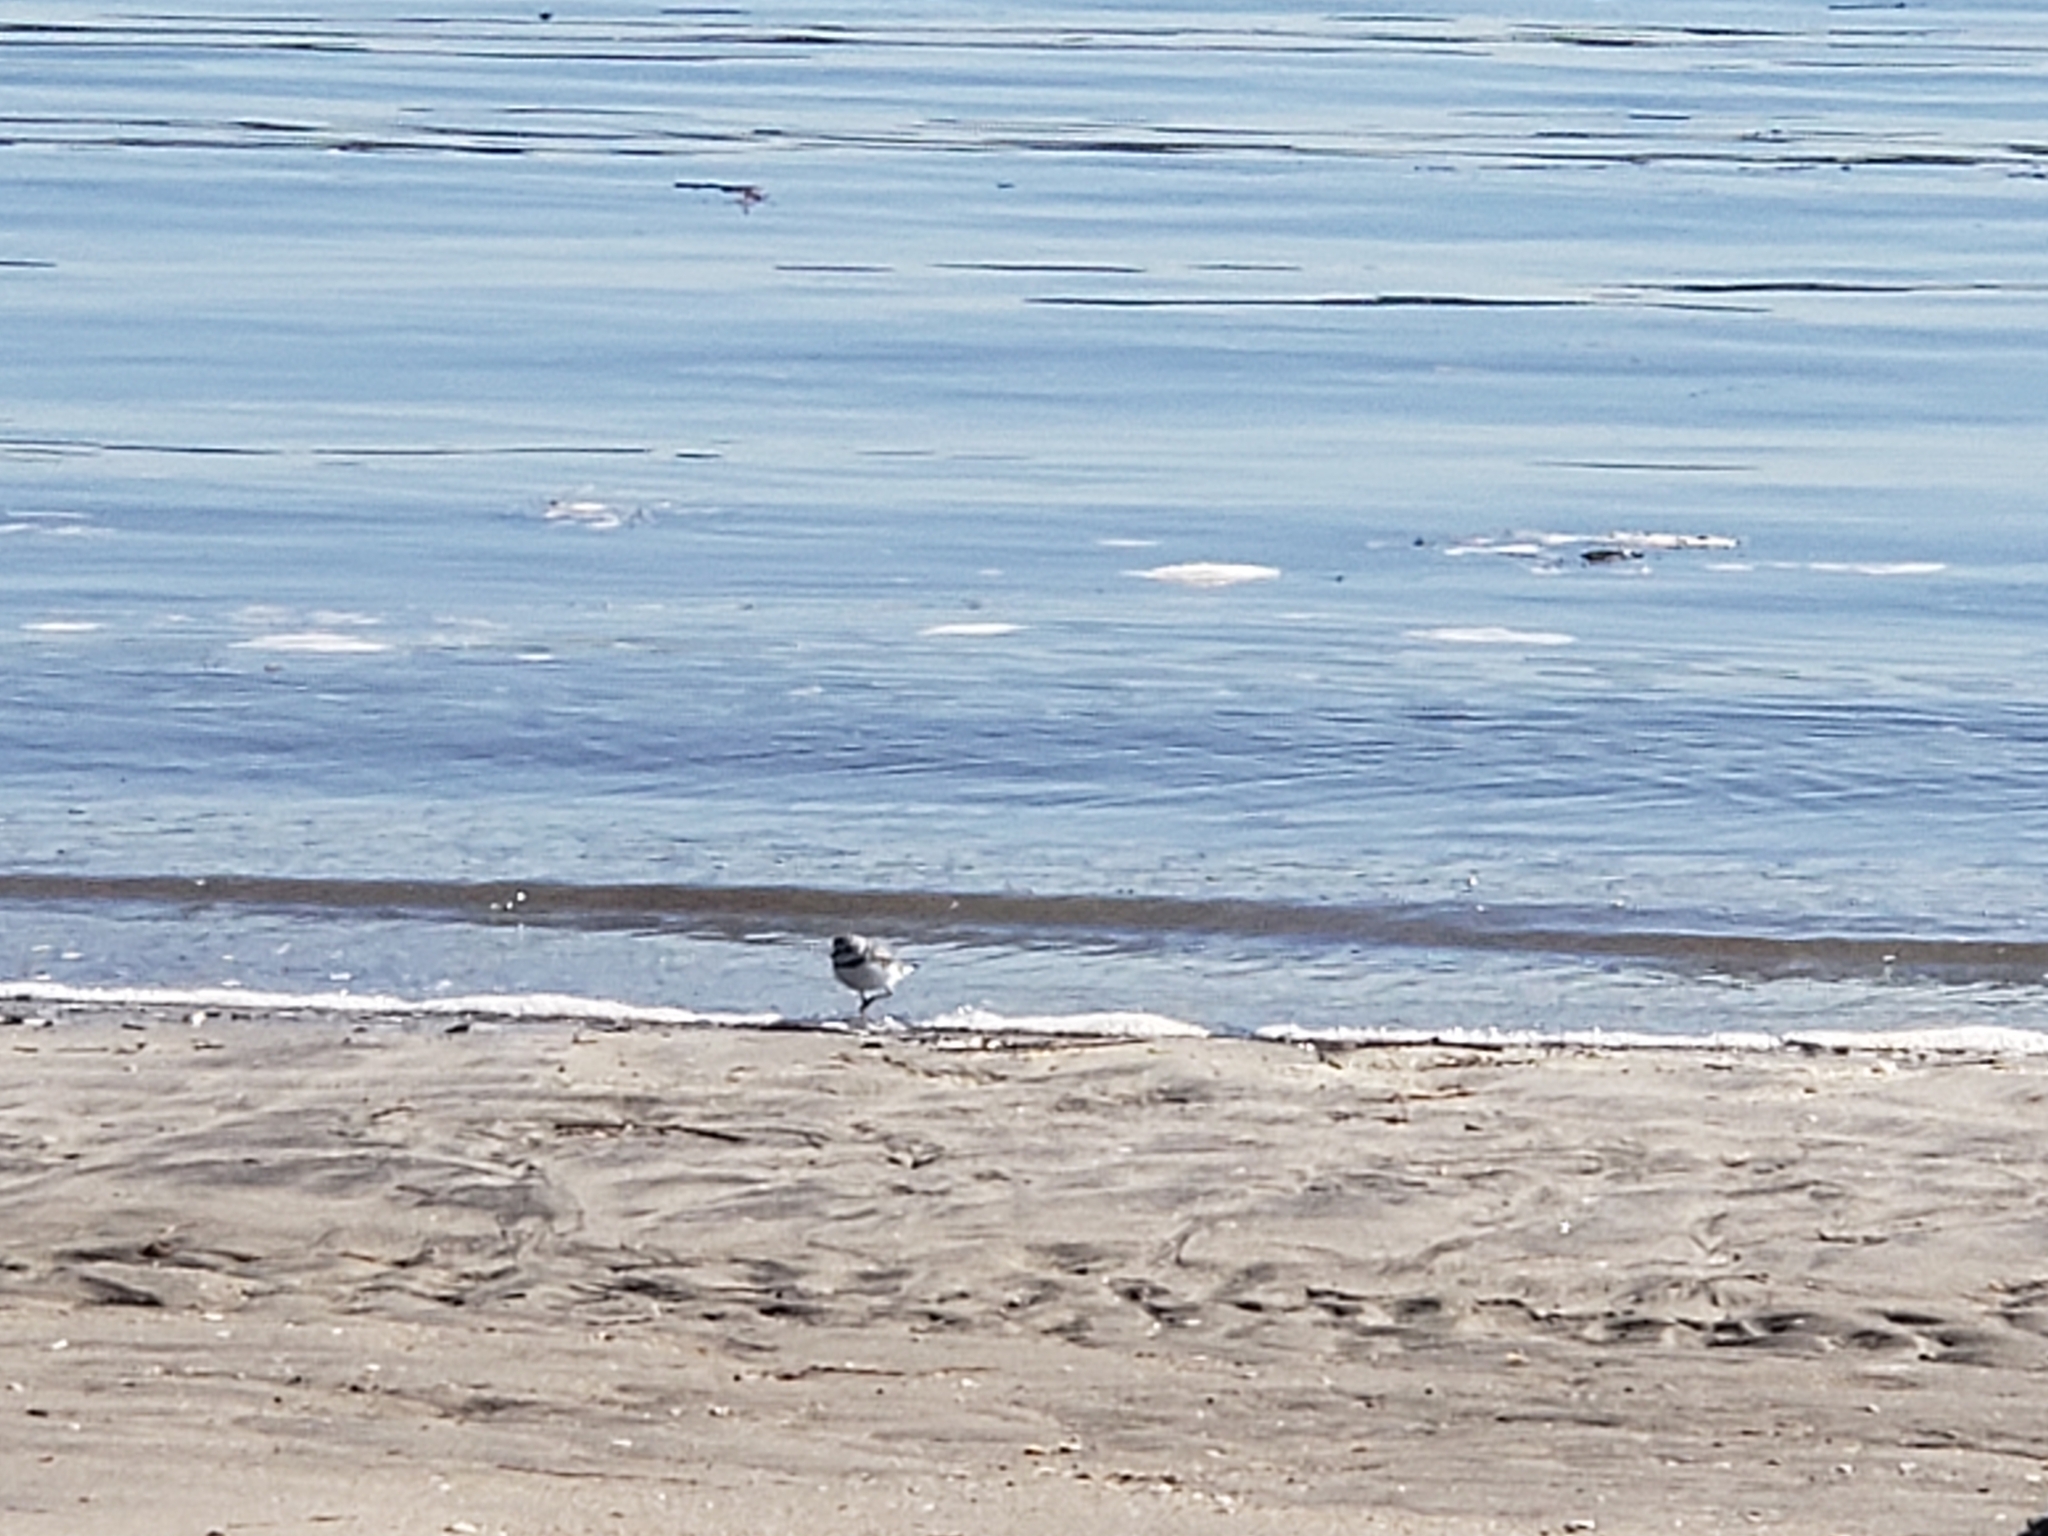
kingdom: Animalia
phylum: Chordata
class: Aves
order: Charadriiformes
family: Charadriidae
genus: Charadrius
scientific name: Charadrius semipalmatus
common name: Semipalmated plover
